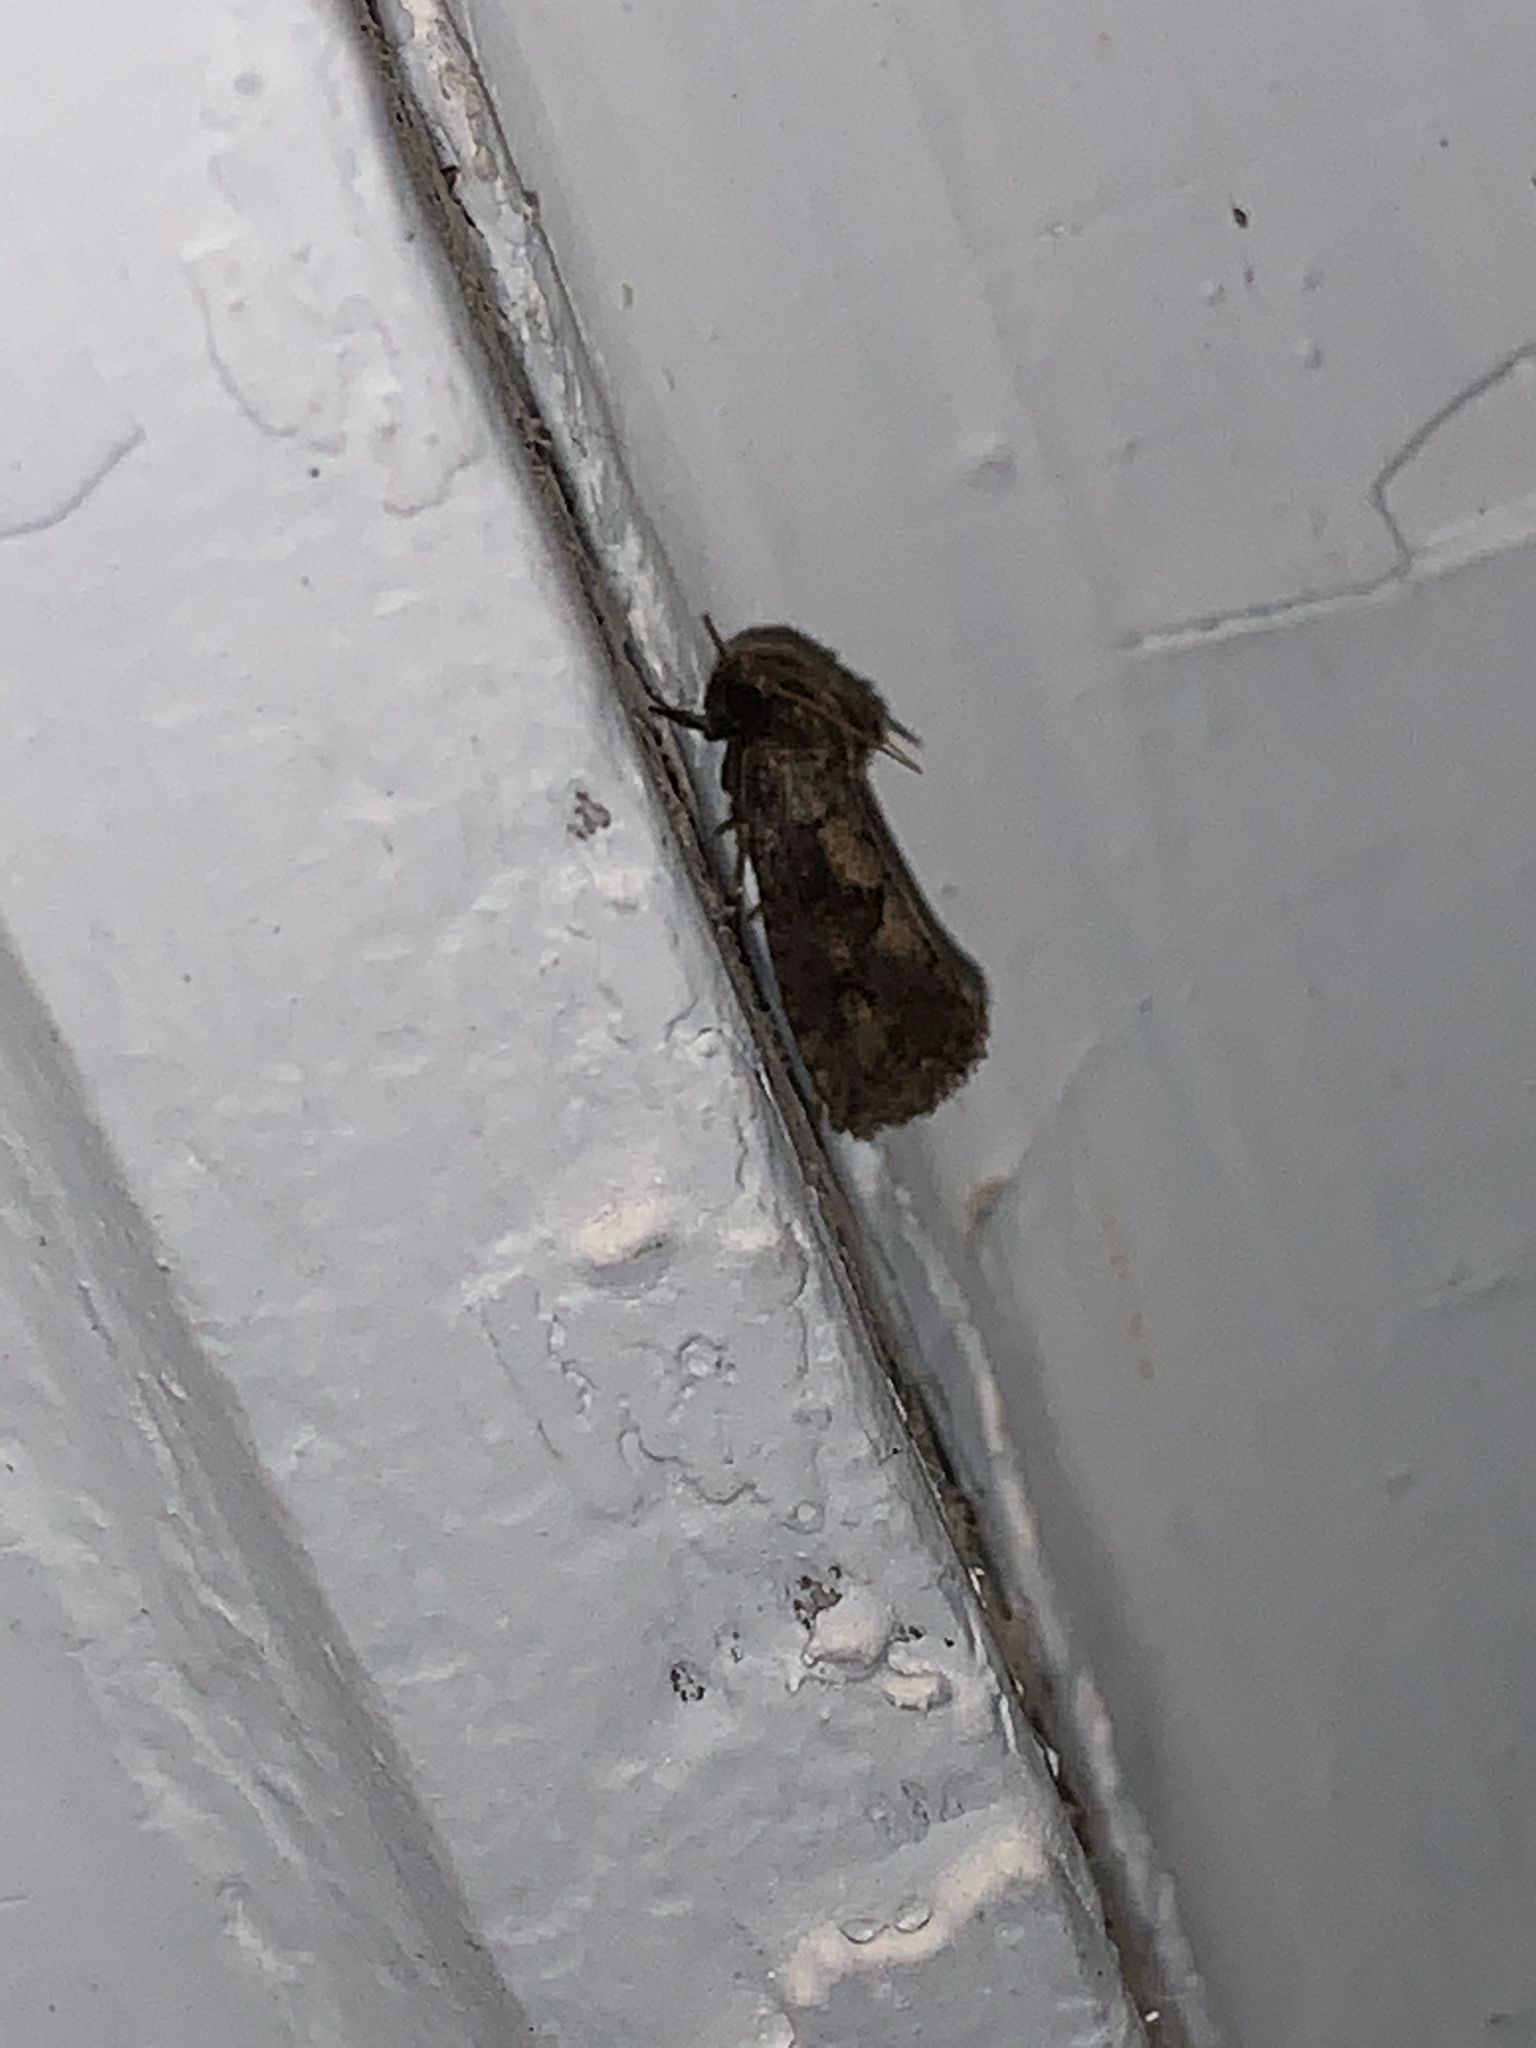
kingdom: Animalia
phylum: Arthropoda
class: Insecta
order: Lepidoptera
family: Tineidae
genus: Acrolophus
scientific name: Acrolophus popeanella
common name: Clemens' grass tubeworm moth
